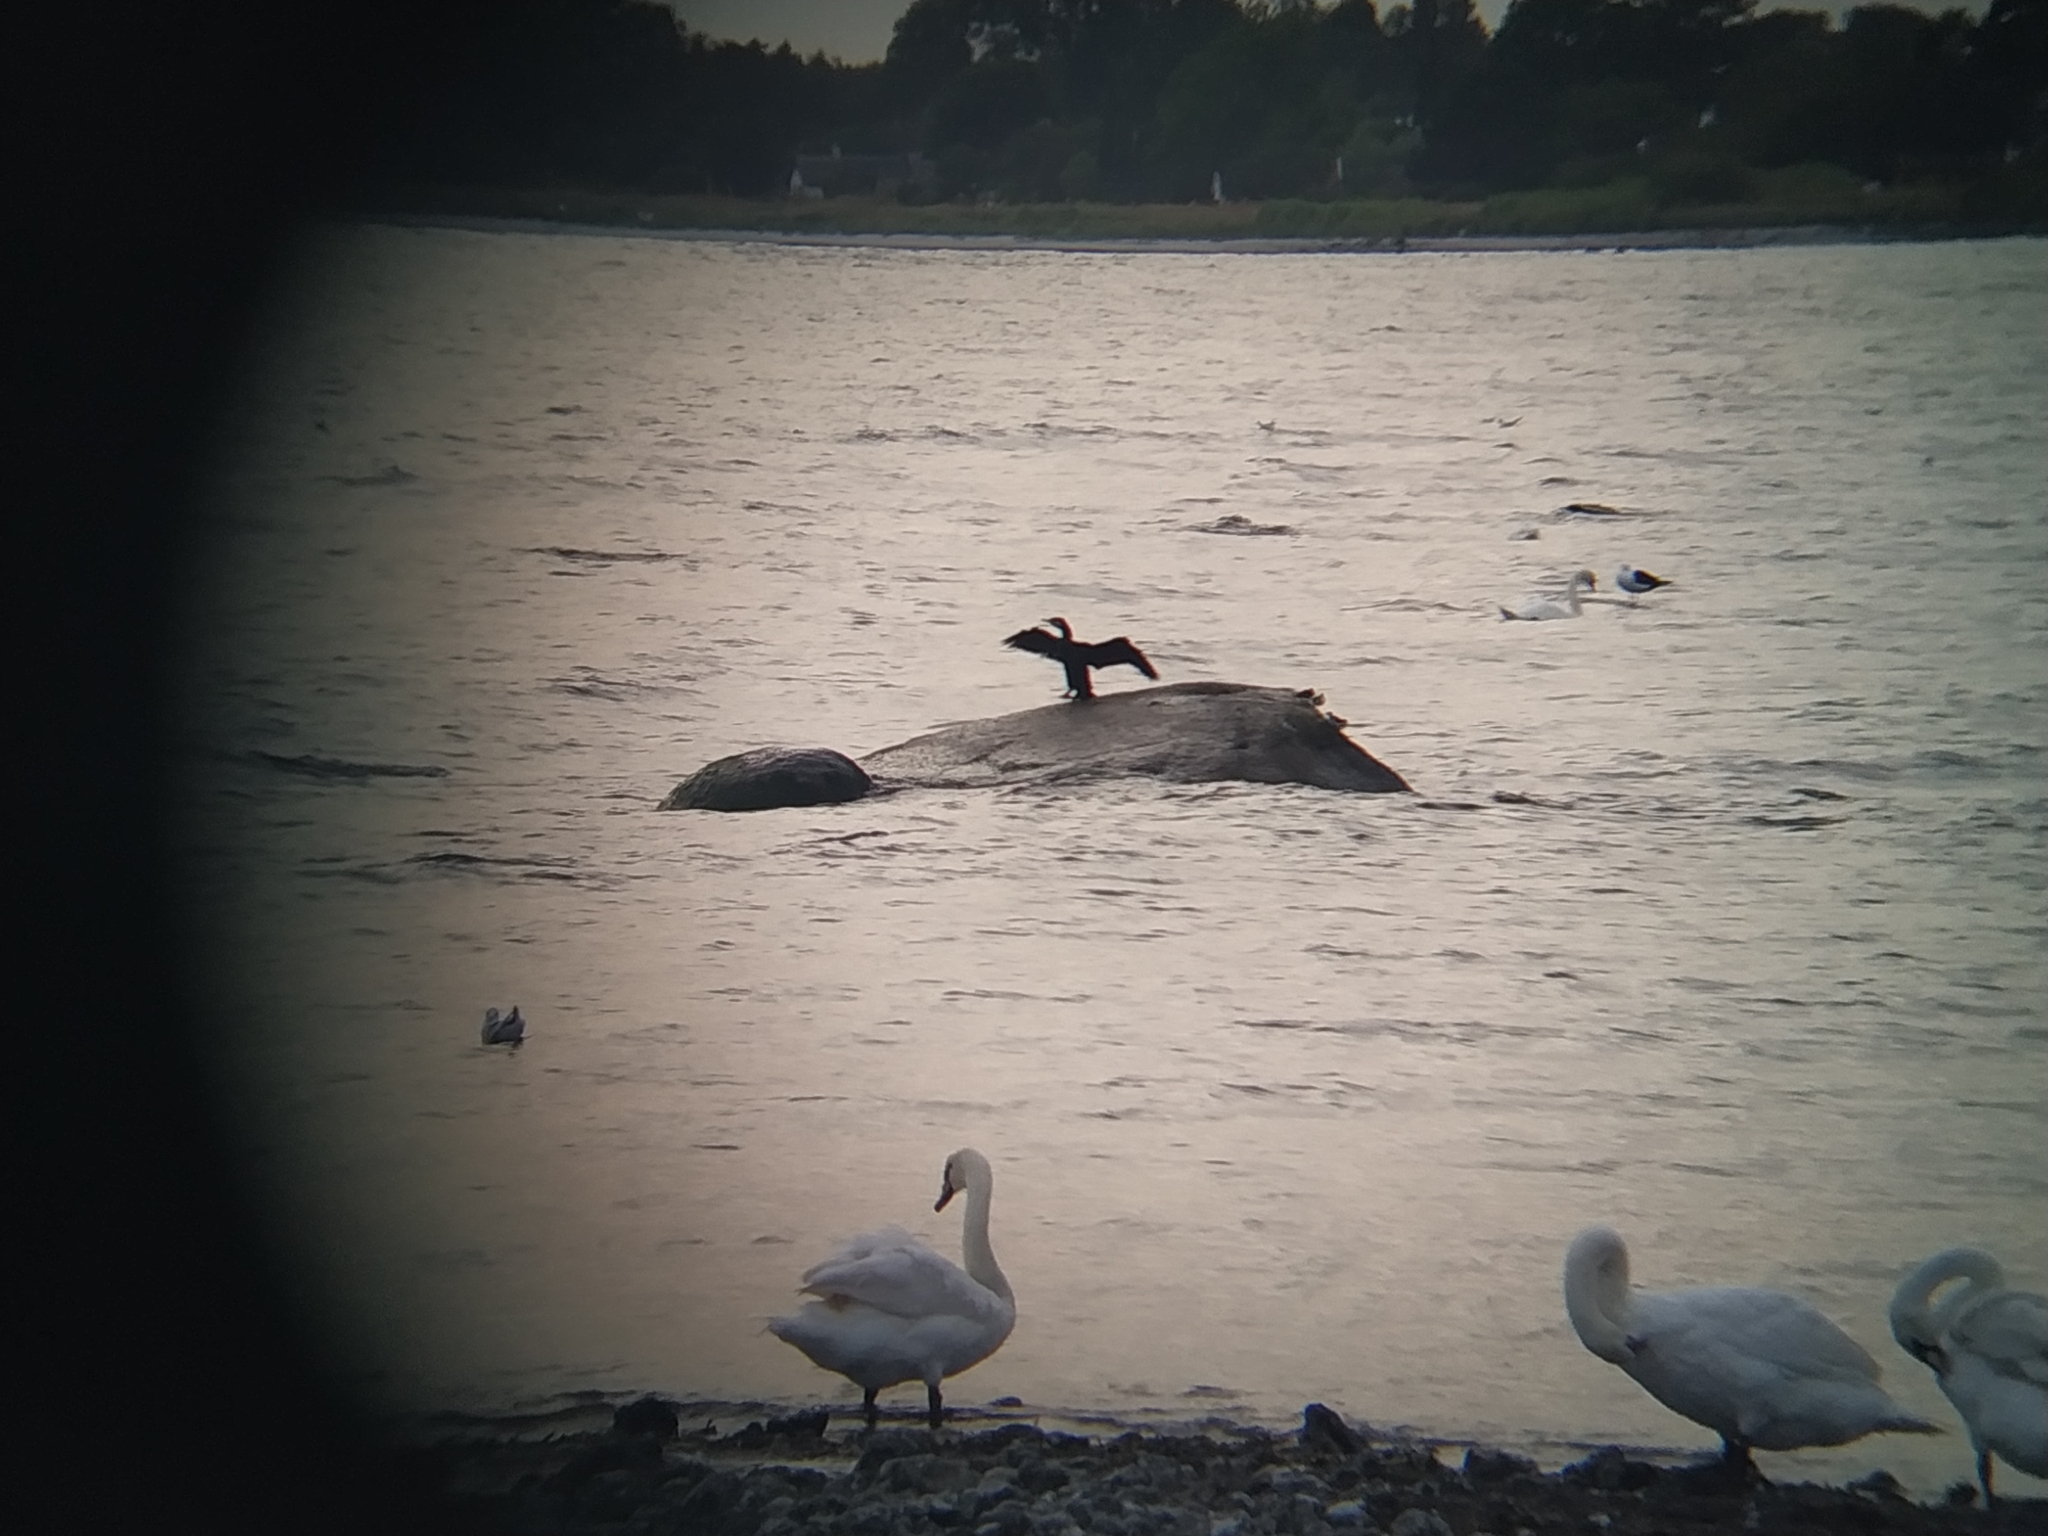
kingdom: Animalia
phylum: Chordata
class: Aves
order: Suliformes
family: Phalacrocoracidae
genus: Phalacrocorax
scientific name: Phalacrocorax carbo
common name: Great cormorant
